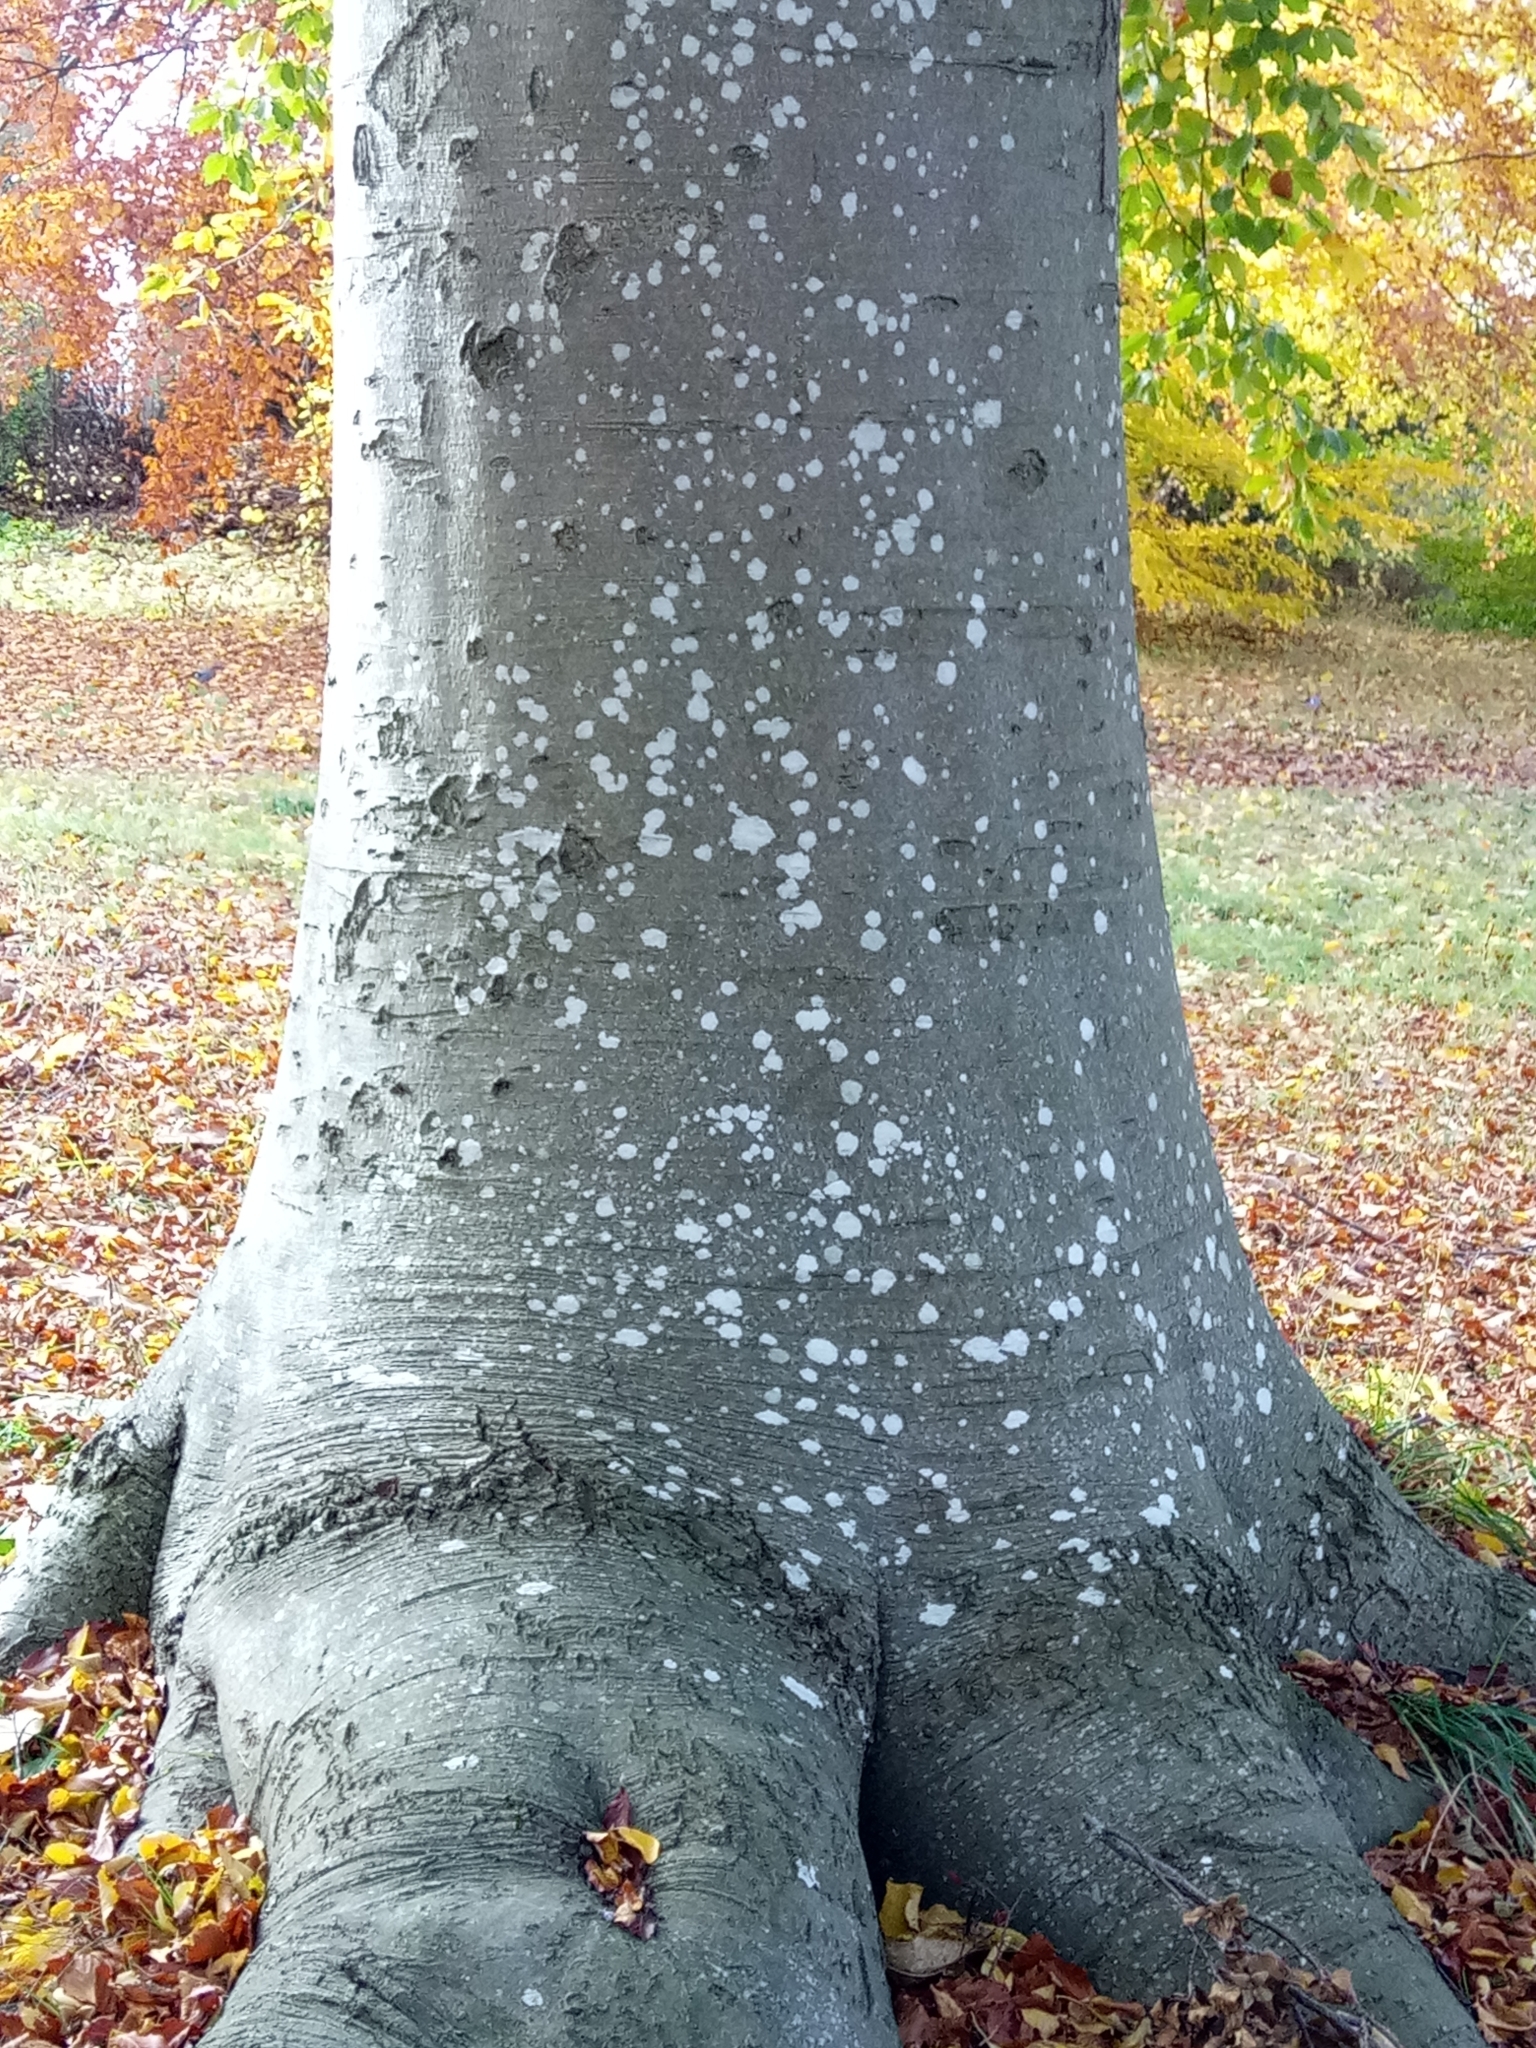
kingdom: Plantae
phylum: Tracheophyta
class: Magnoliopsida
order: Fagales
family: Fagaceae
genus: Fagus
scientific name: Fagus sylvatica
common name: Beech
